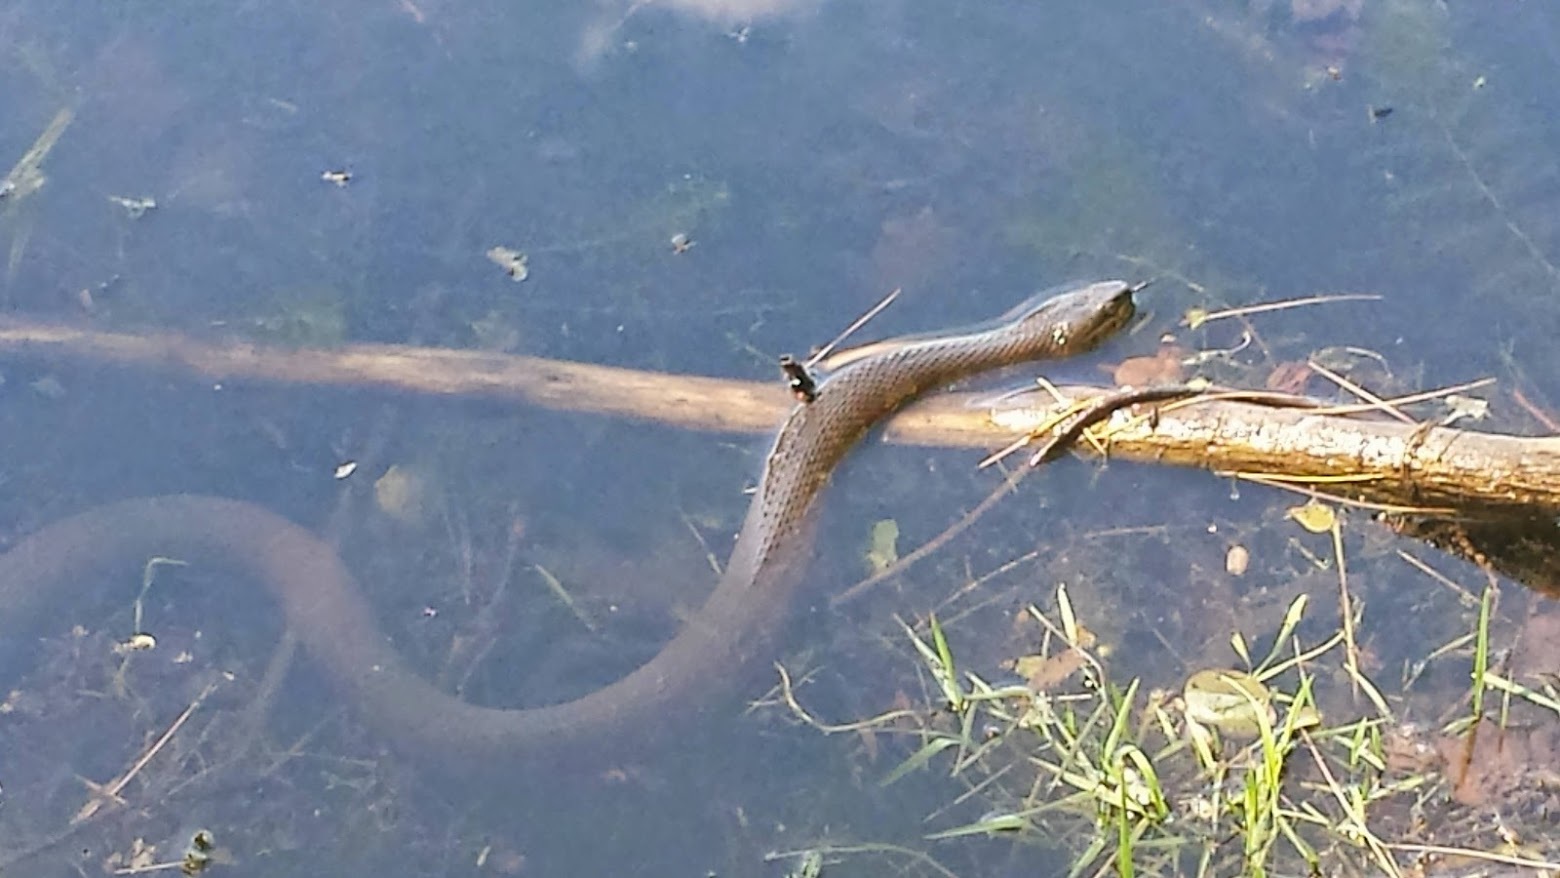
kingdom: Animalia
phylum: Chordata
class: Squamata
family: Colubridae
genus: Nerodia
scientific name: Nerodia sipedon
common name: Northern water snake
